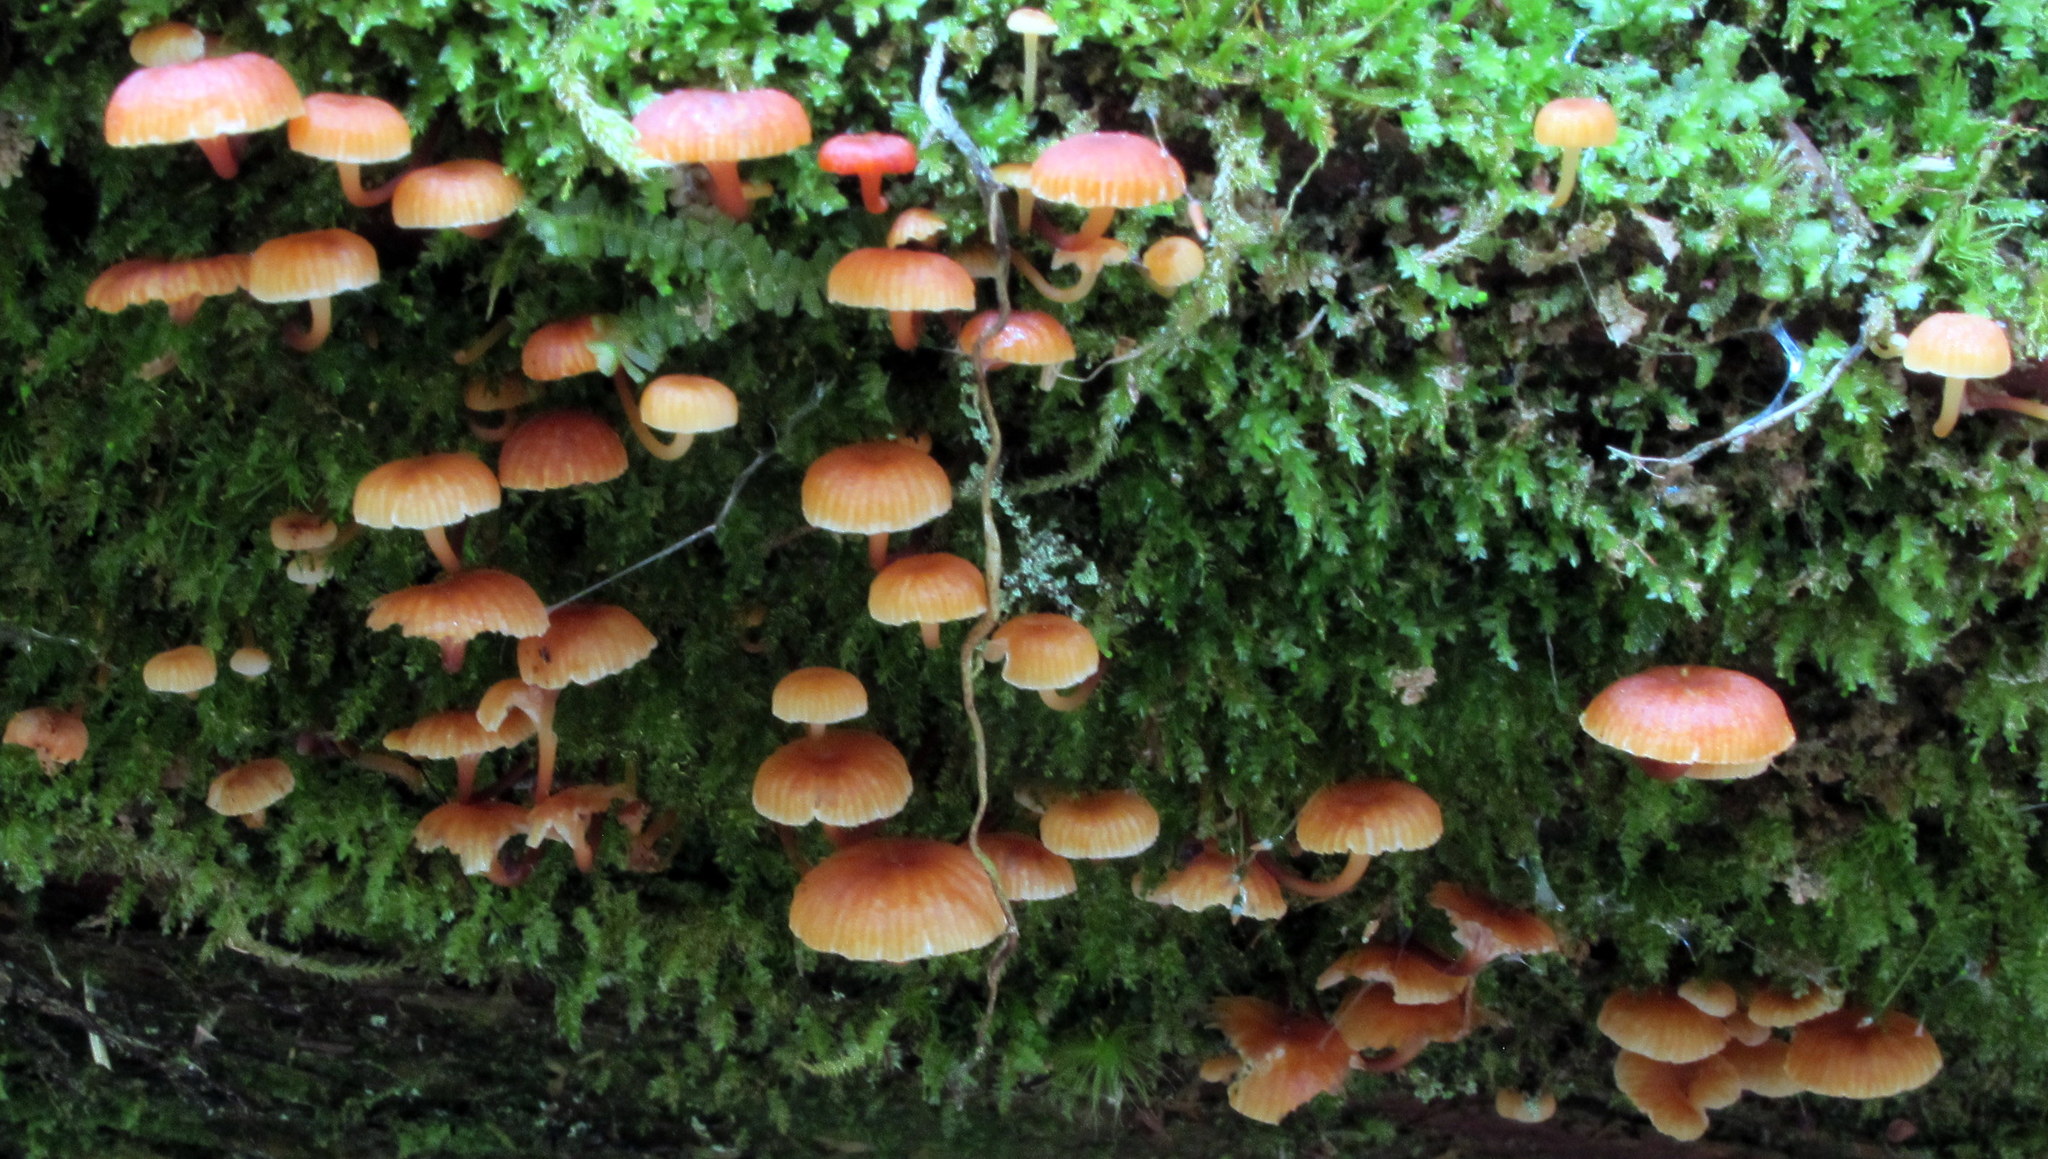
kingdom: Fungi
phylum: Basidiomycota
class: Agaricomycetes
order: Agaricales
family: Mycenaceae
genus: Xeromphalina
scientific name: Xeromphalina campanella
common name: Pinewood gingertail
